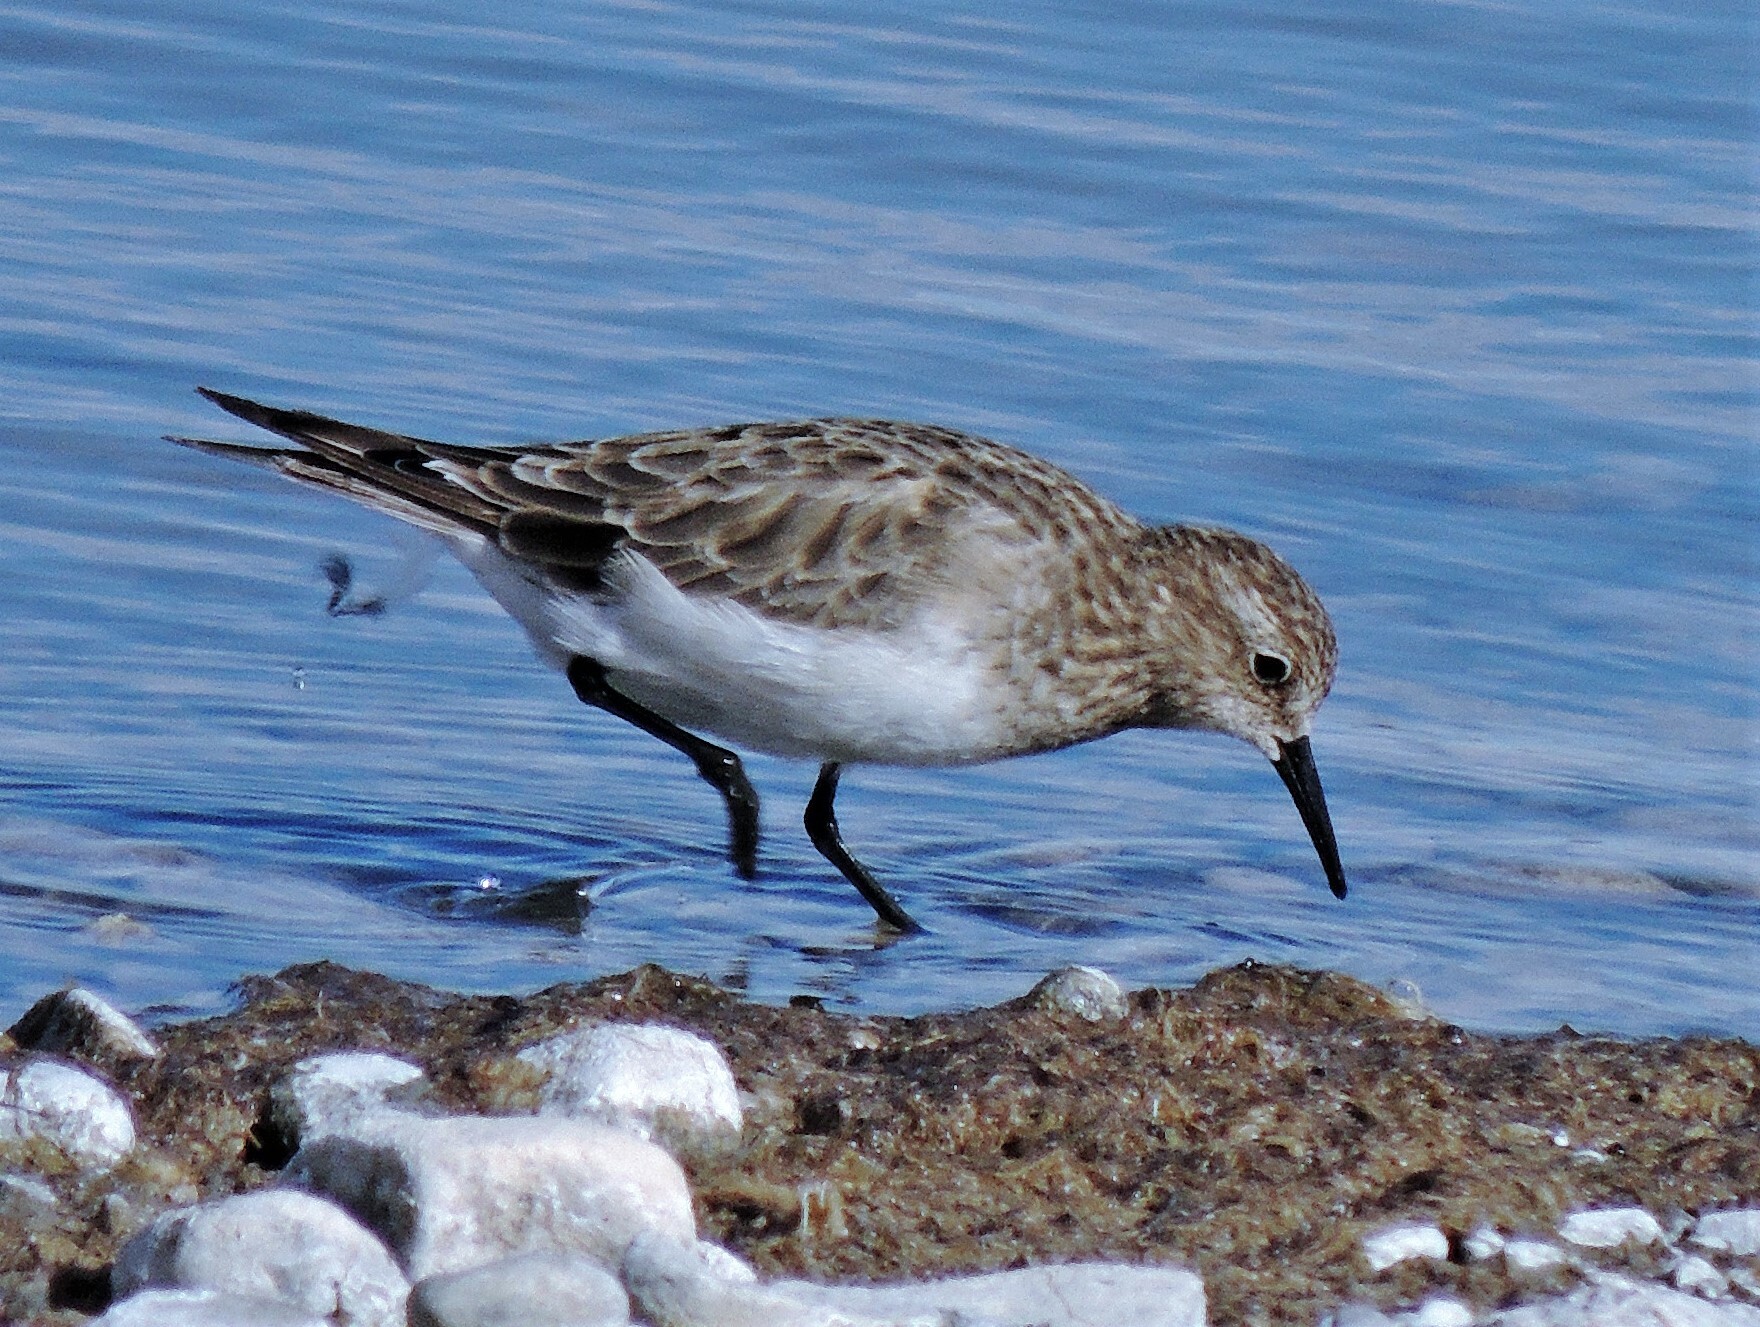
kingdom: Animalia
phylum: Chordata
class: Aves
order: Charadriiformes
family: Scolopacidae
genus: Calidris
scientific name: Calidris bairdii
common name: Baird's sandpiper
